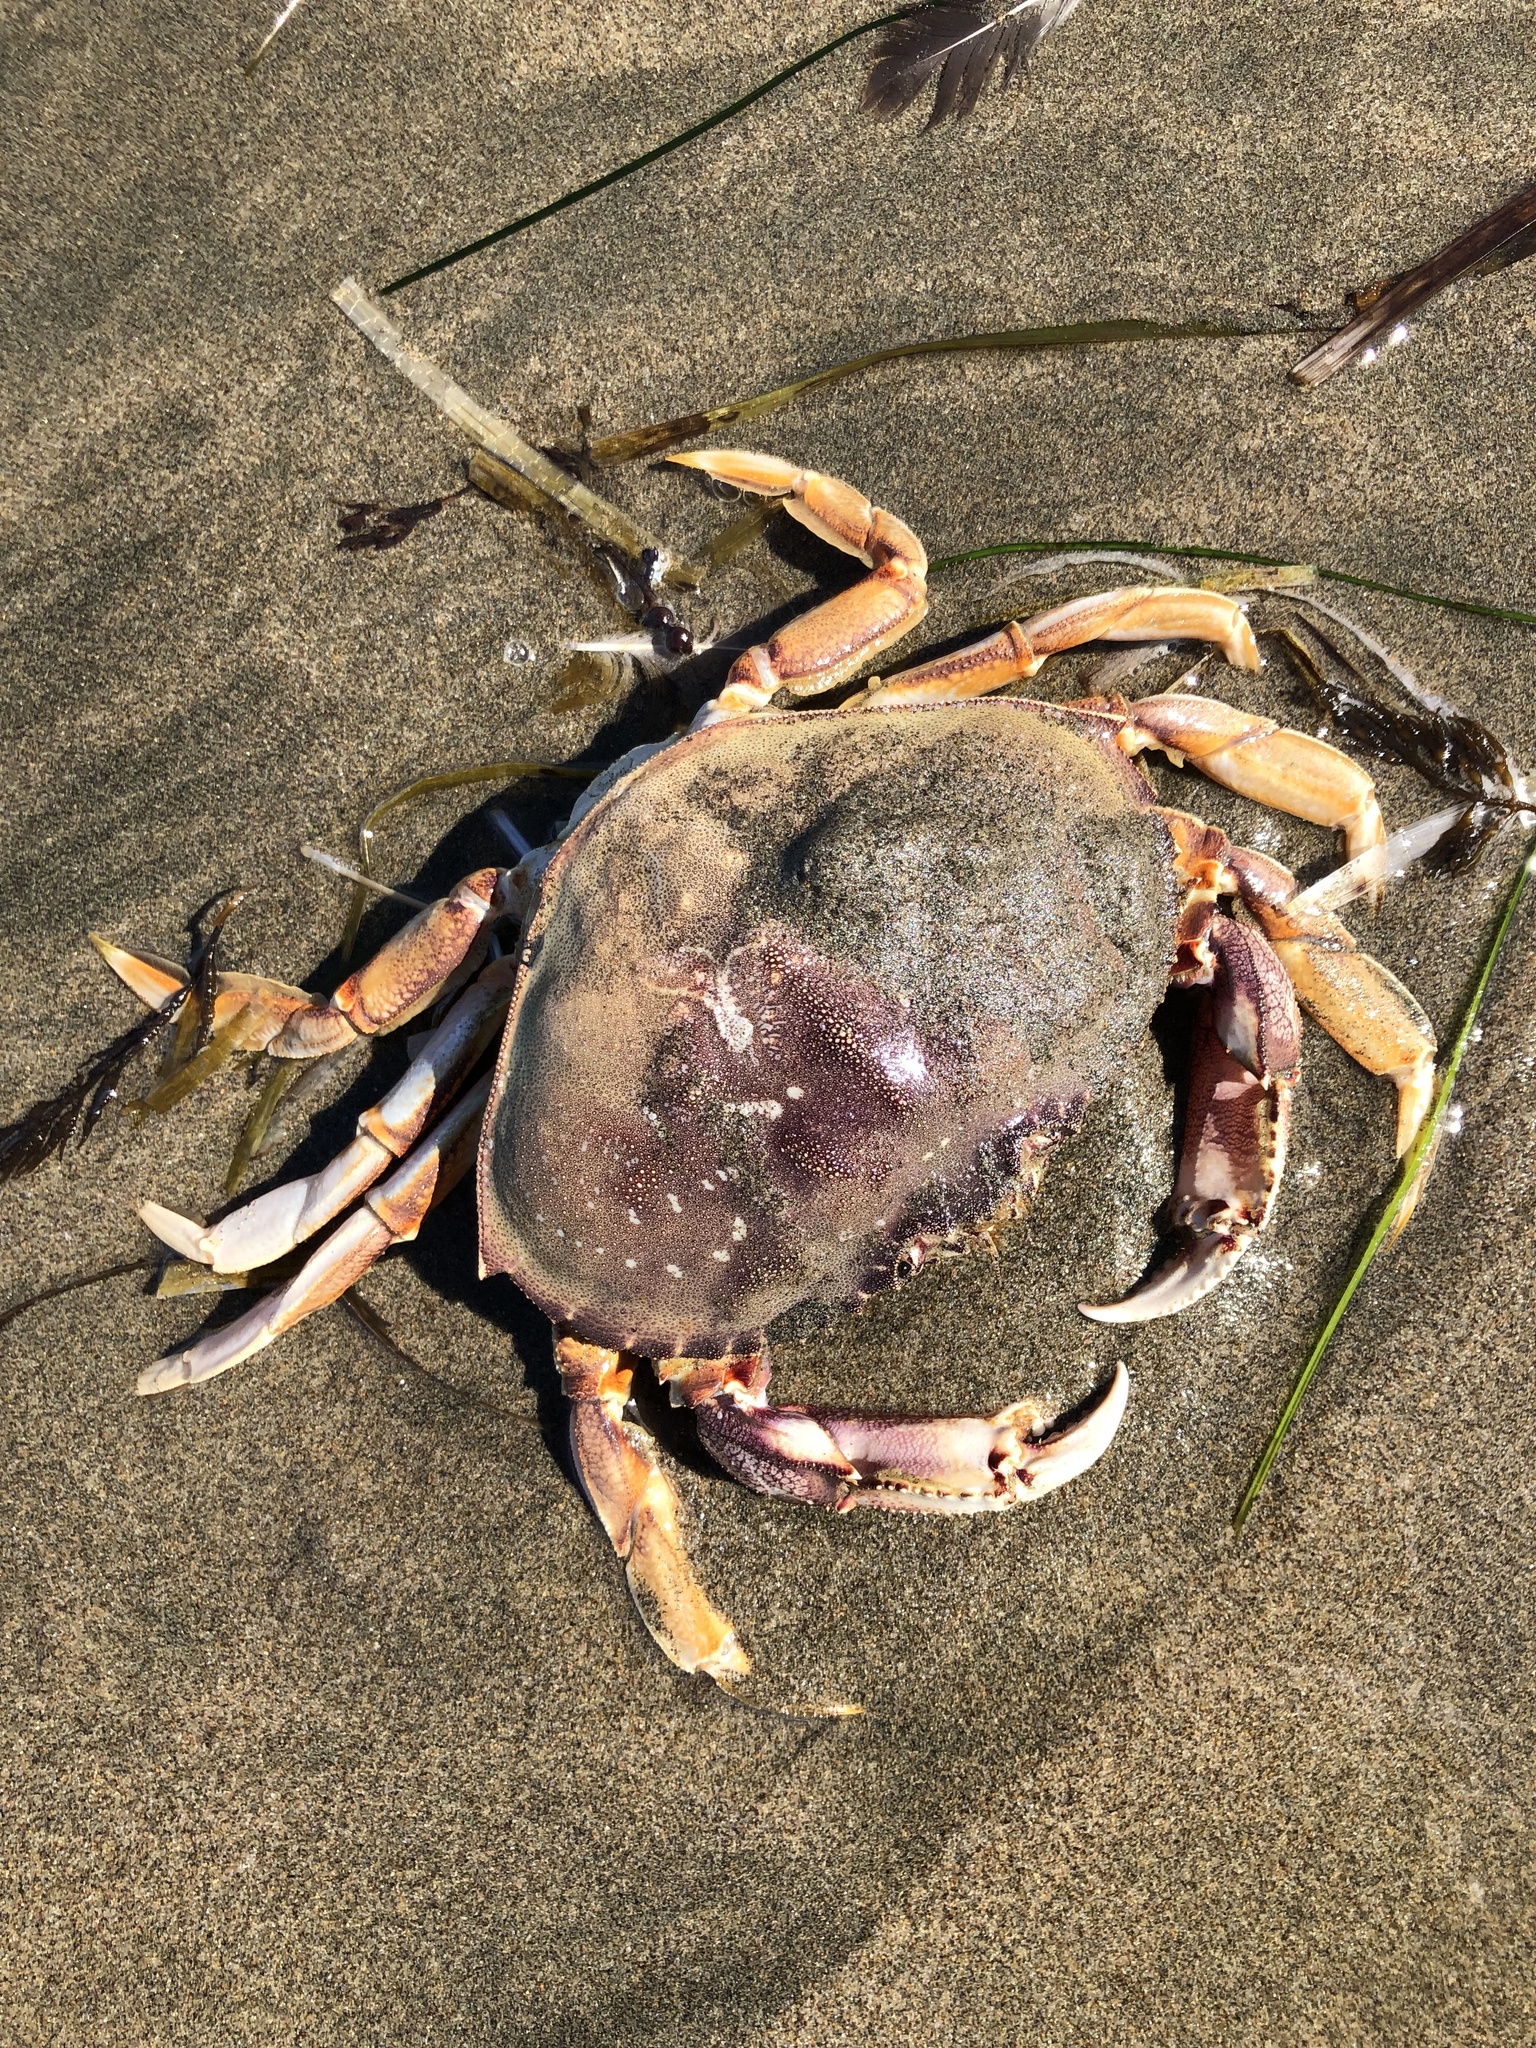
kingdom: Animalia
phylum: Arthropoda
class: Malacostraca
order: Decapoda
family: Cancridae
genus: Metacarcinus
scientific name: Metacarcinus magister
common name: Californian crab
